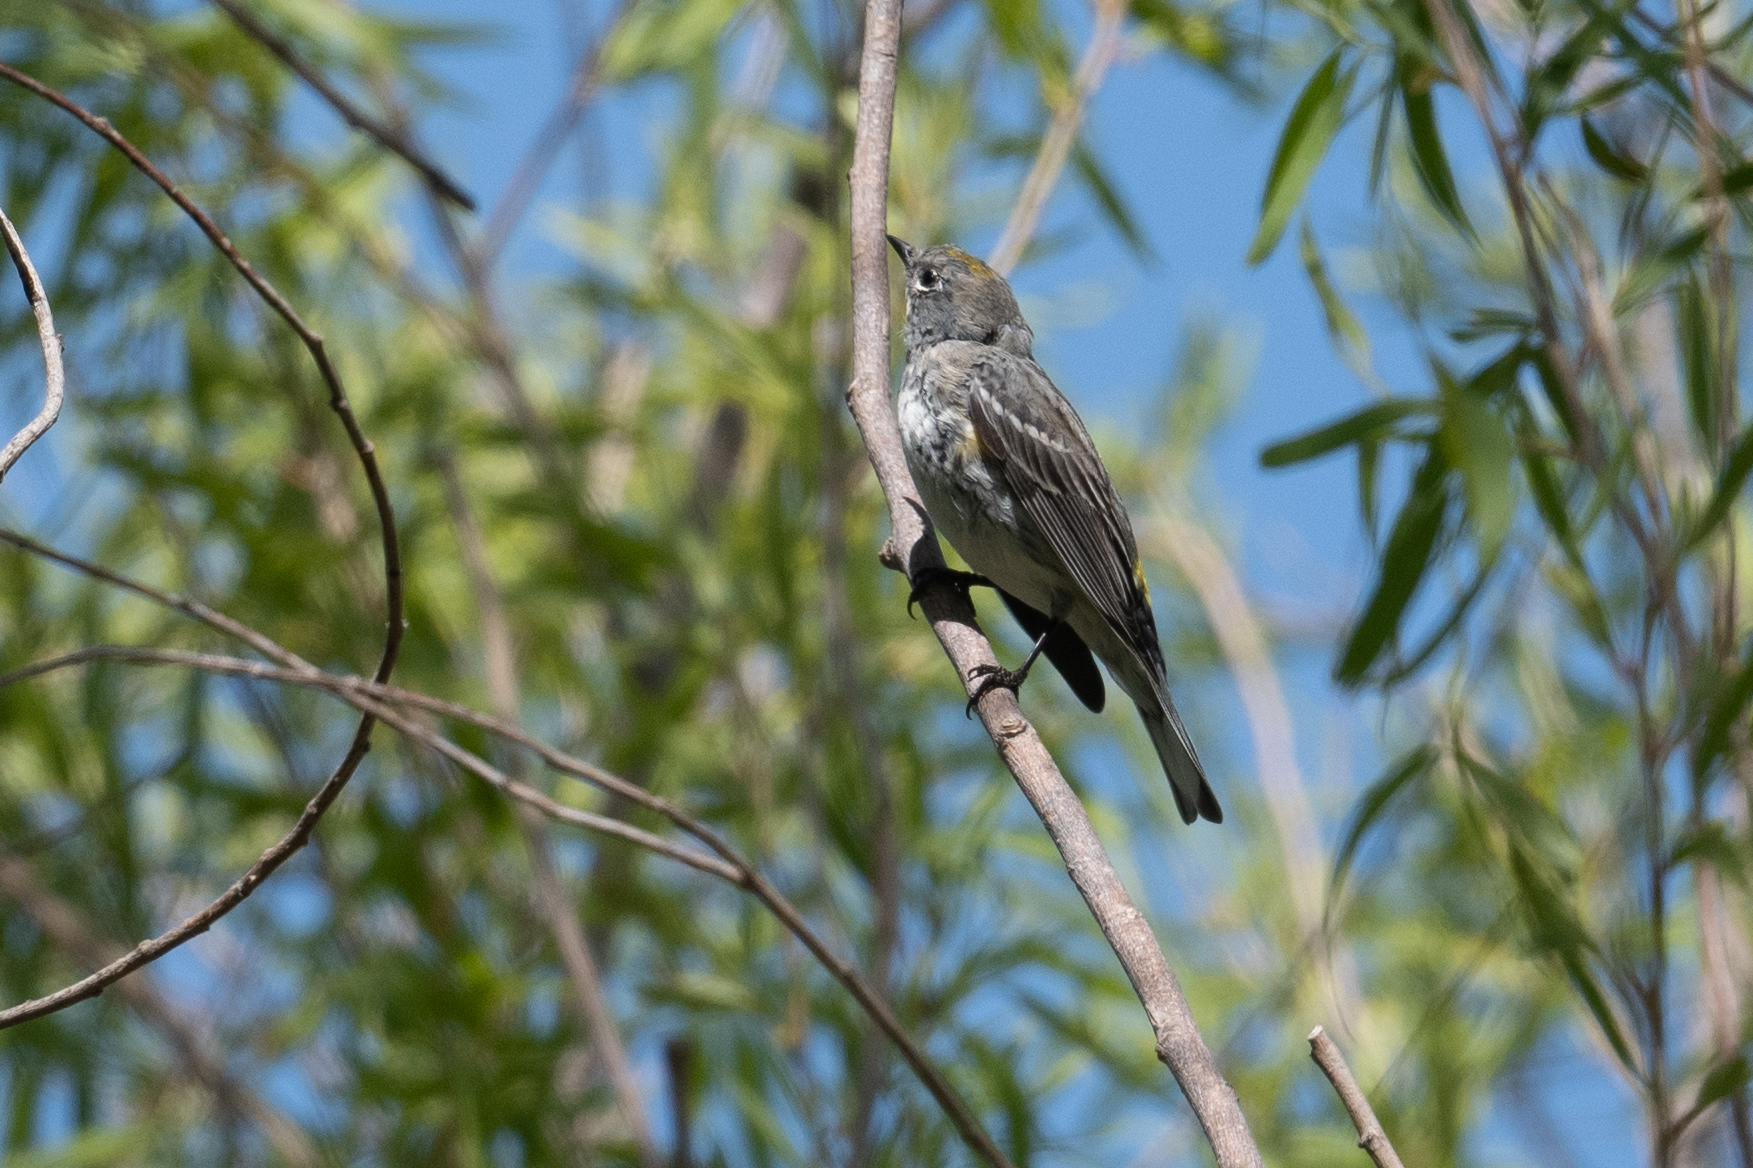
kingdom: Animalia
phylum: Chordata
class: Aves
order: Passeriformes
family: Parulidae
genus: Setophaga
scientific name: Setophaga coronata
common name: Myrtle warbler
